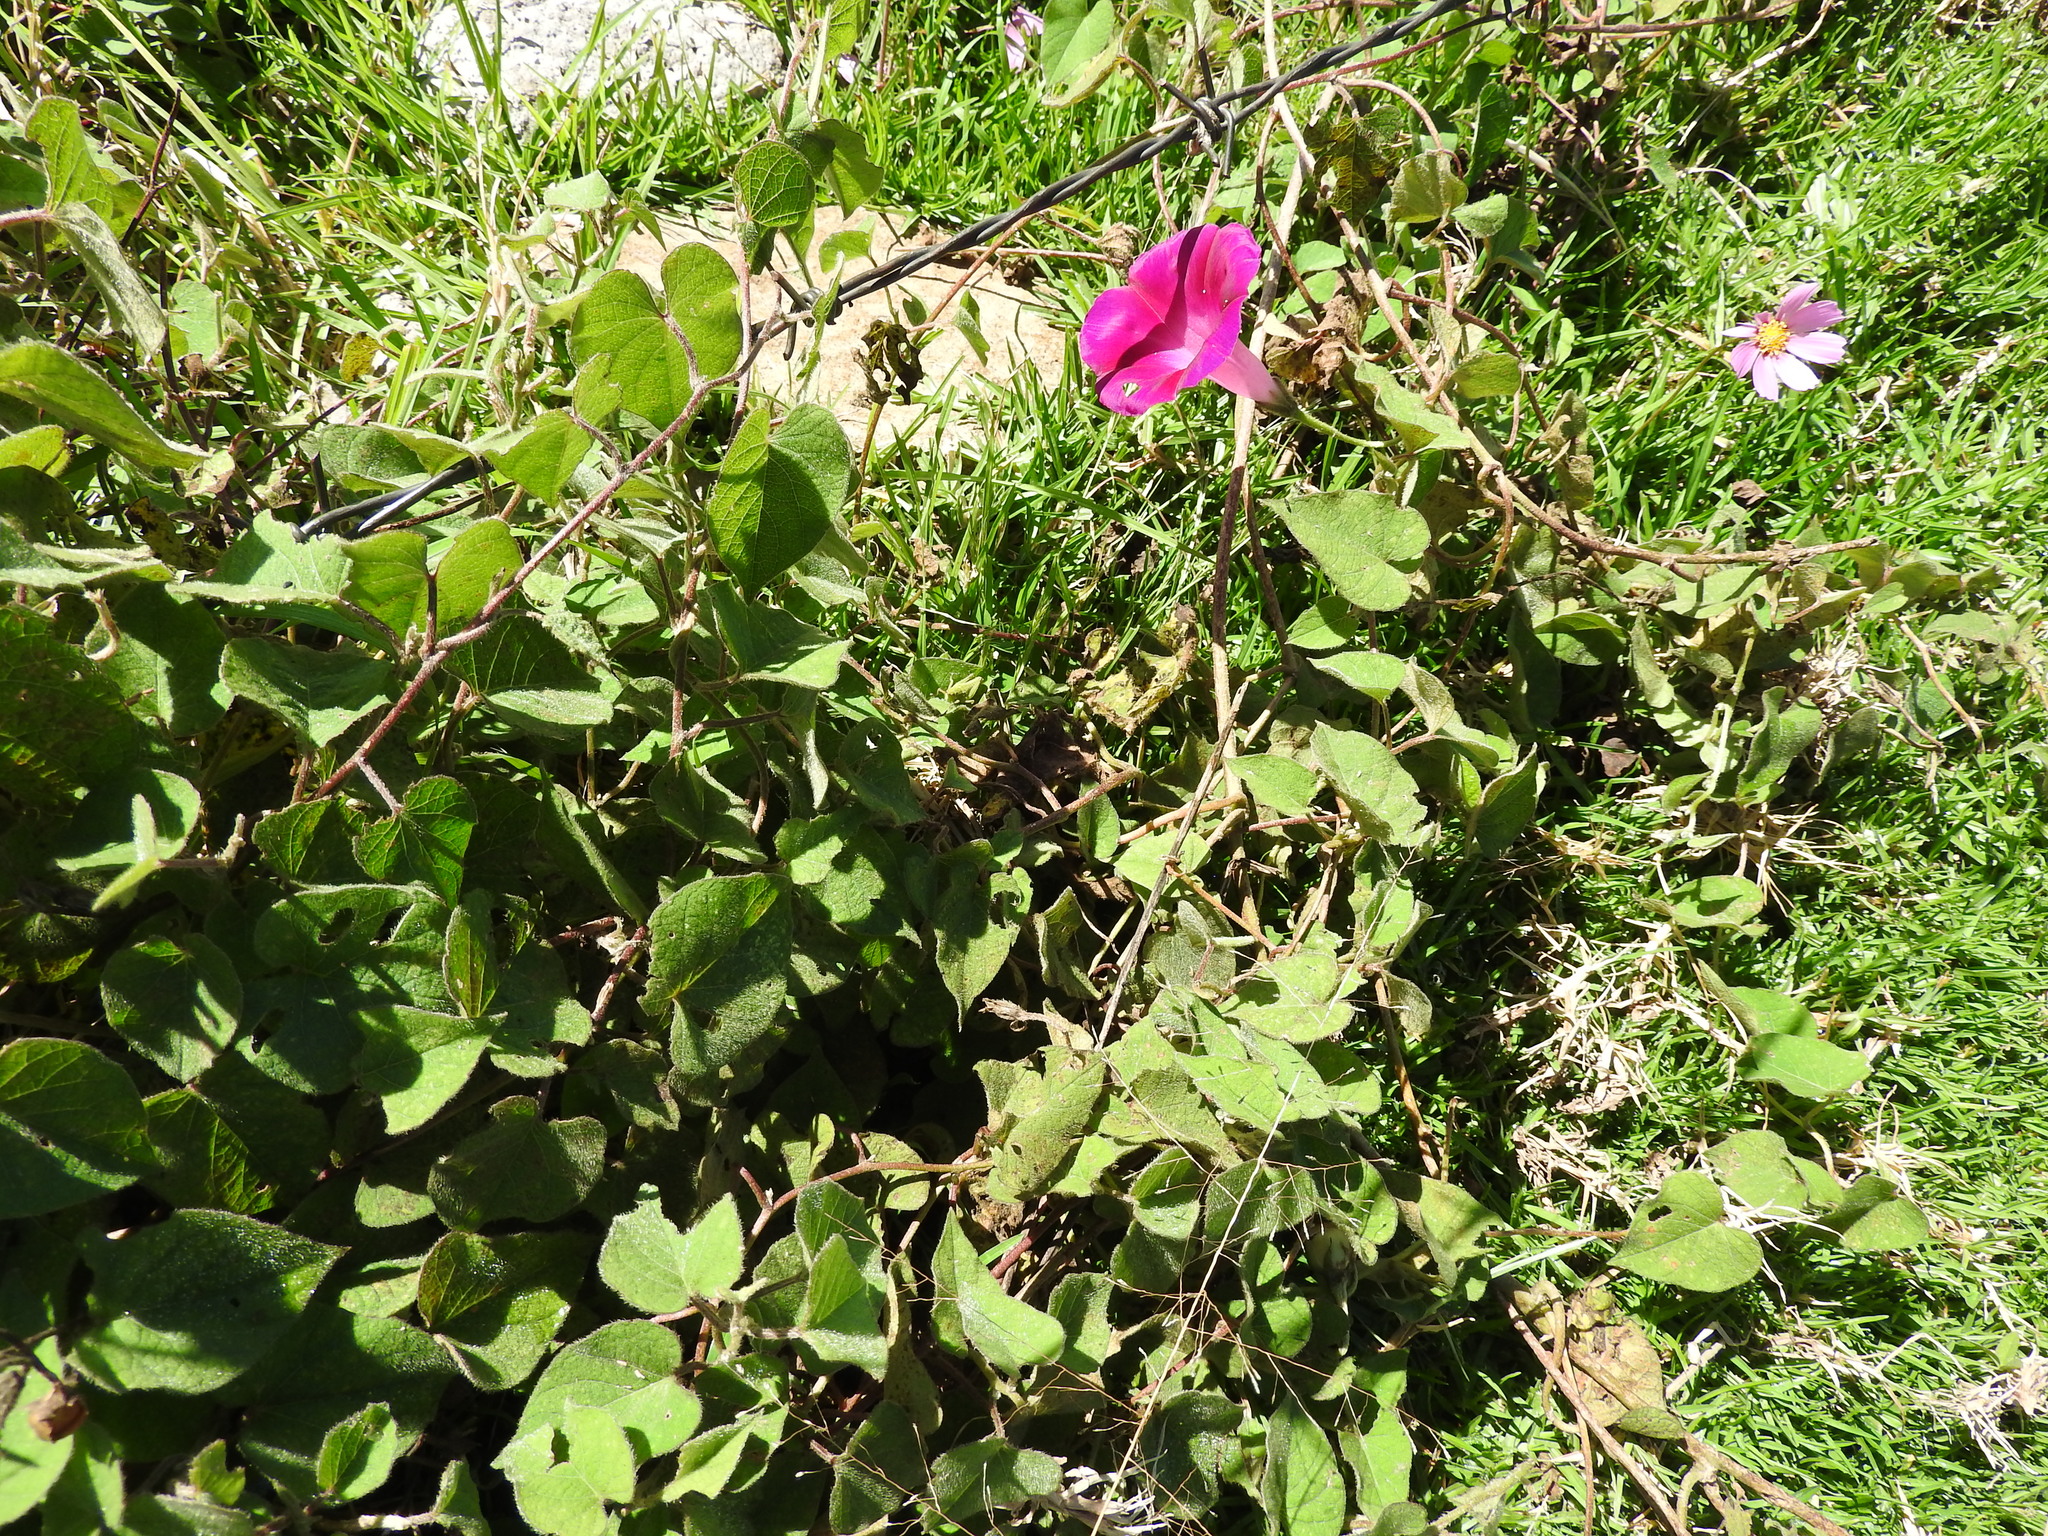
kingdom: Plantae
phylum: Tracheophyta
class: Magnoliopsida
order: Solanales
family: Convolvulaceae
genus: Ipomoea
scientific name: Ipomoea orizabensis
